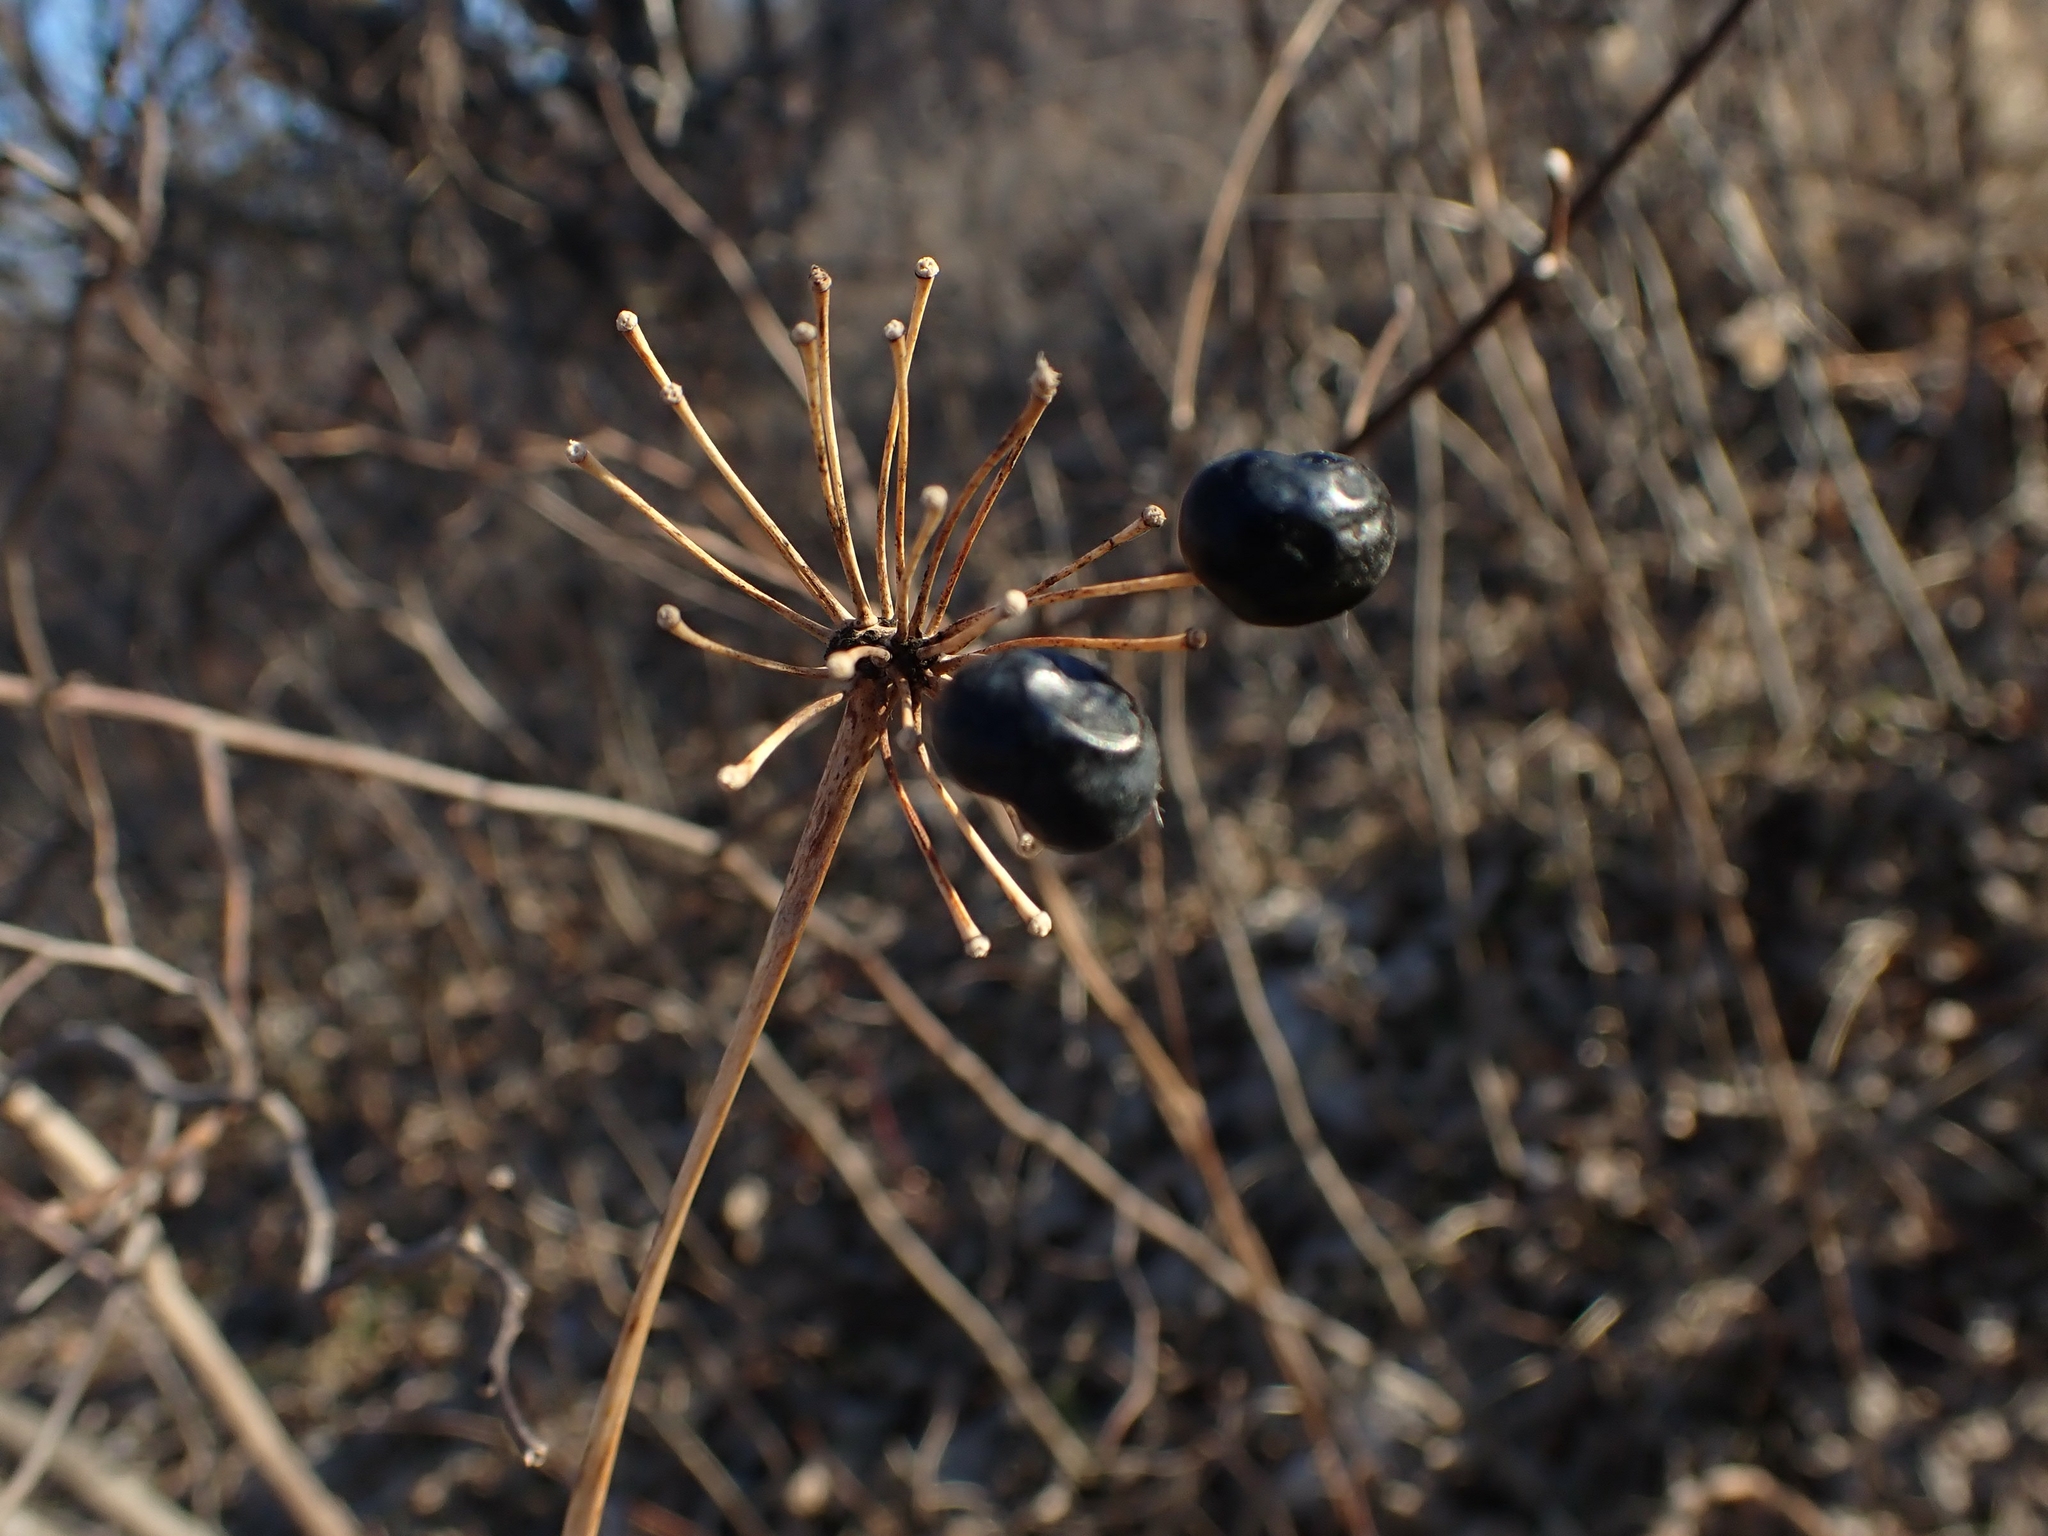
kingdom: Plantae
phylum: Tracheophyta
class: Liliopsida
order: Liliales
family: Smilacaceae
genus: Smilax
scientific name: Smilax lasioneura
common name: Blue ridge carrionflower
